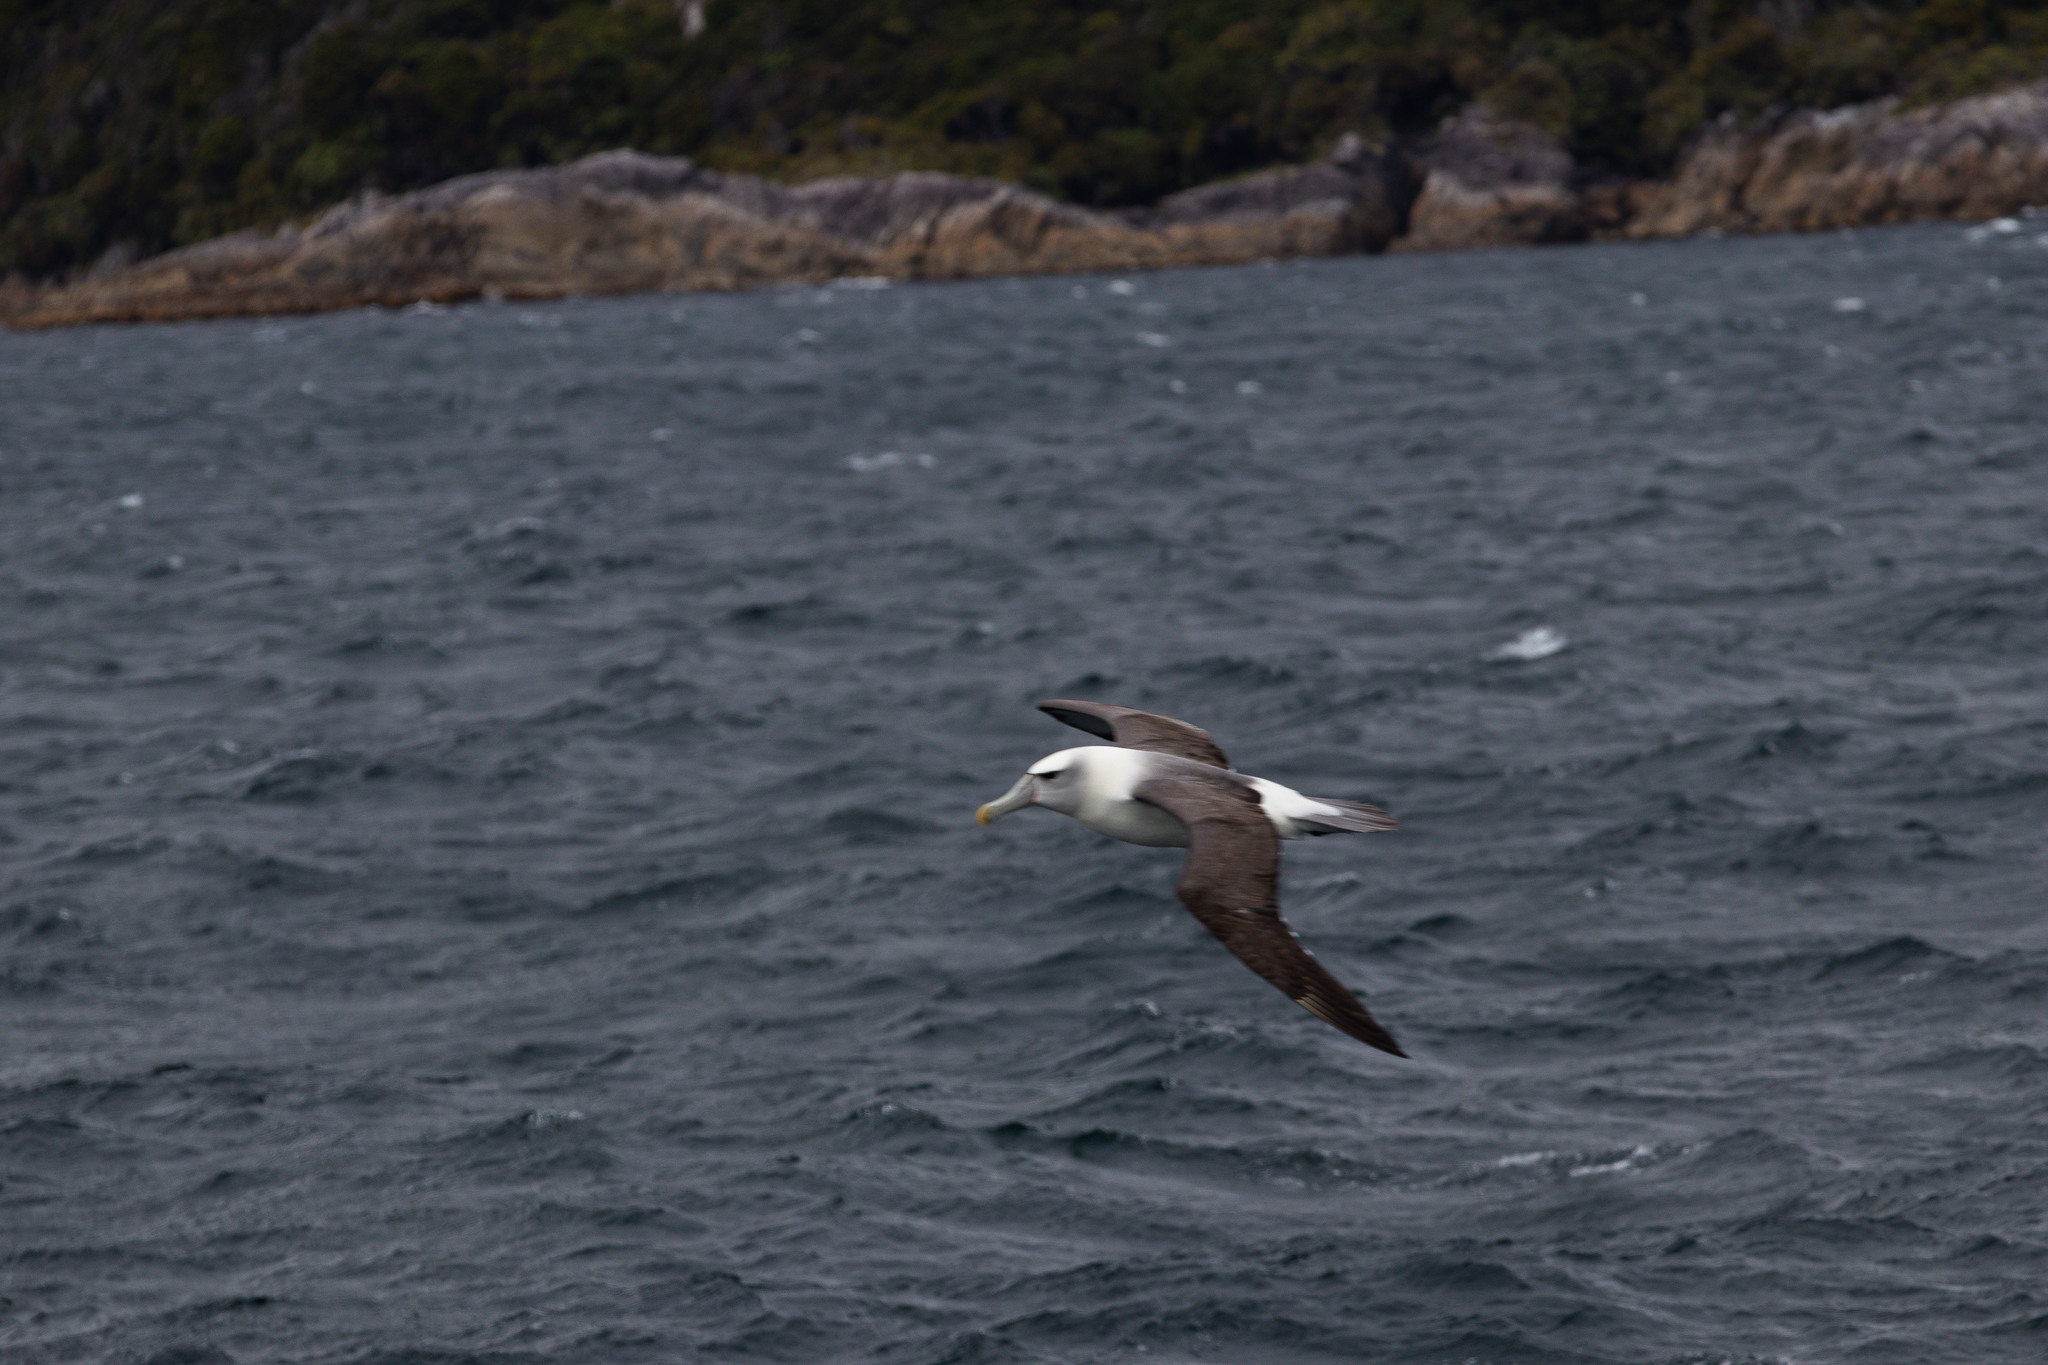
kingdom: Animalia
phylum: Chordata
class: Aves
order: Procellariiformes
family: Diomedeidae
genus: Thalassarche
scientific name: Thalassarche cauta
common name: Shy albatross
